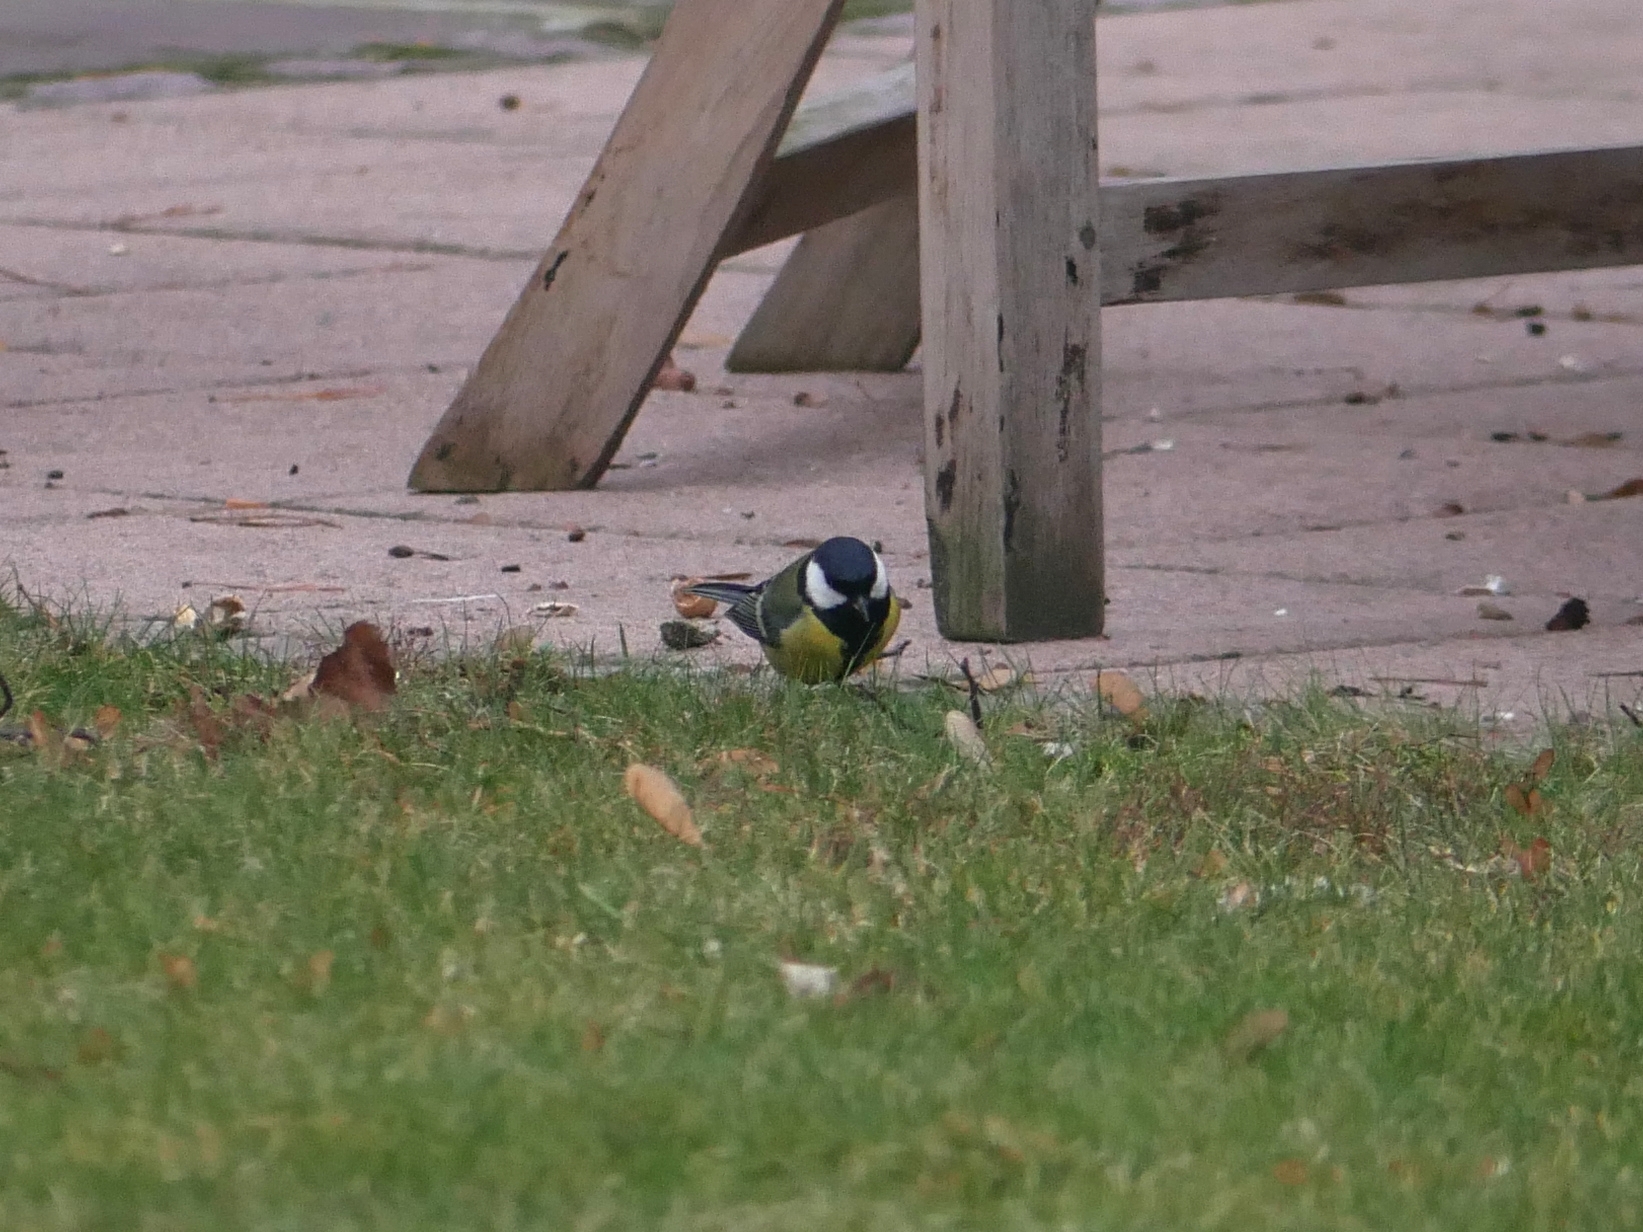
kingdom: Animalia
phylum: Chordata
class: Aves
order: Passeriformes
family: Paridae
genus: Parus
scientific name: Parus major
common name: Great tit
